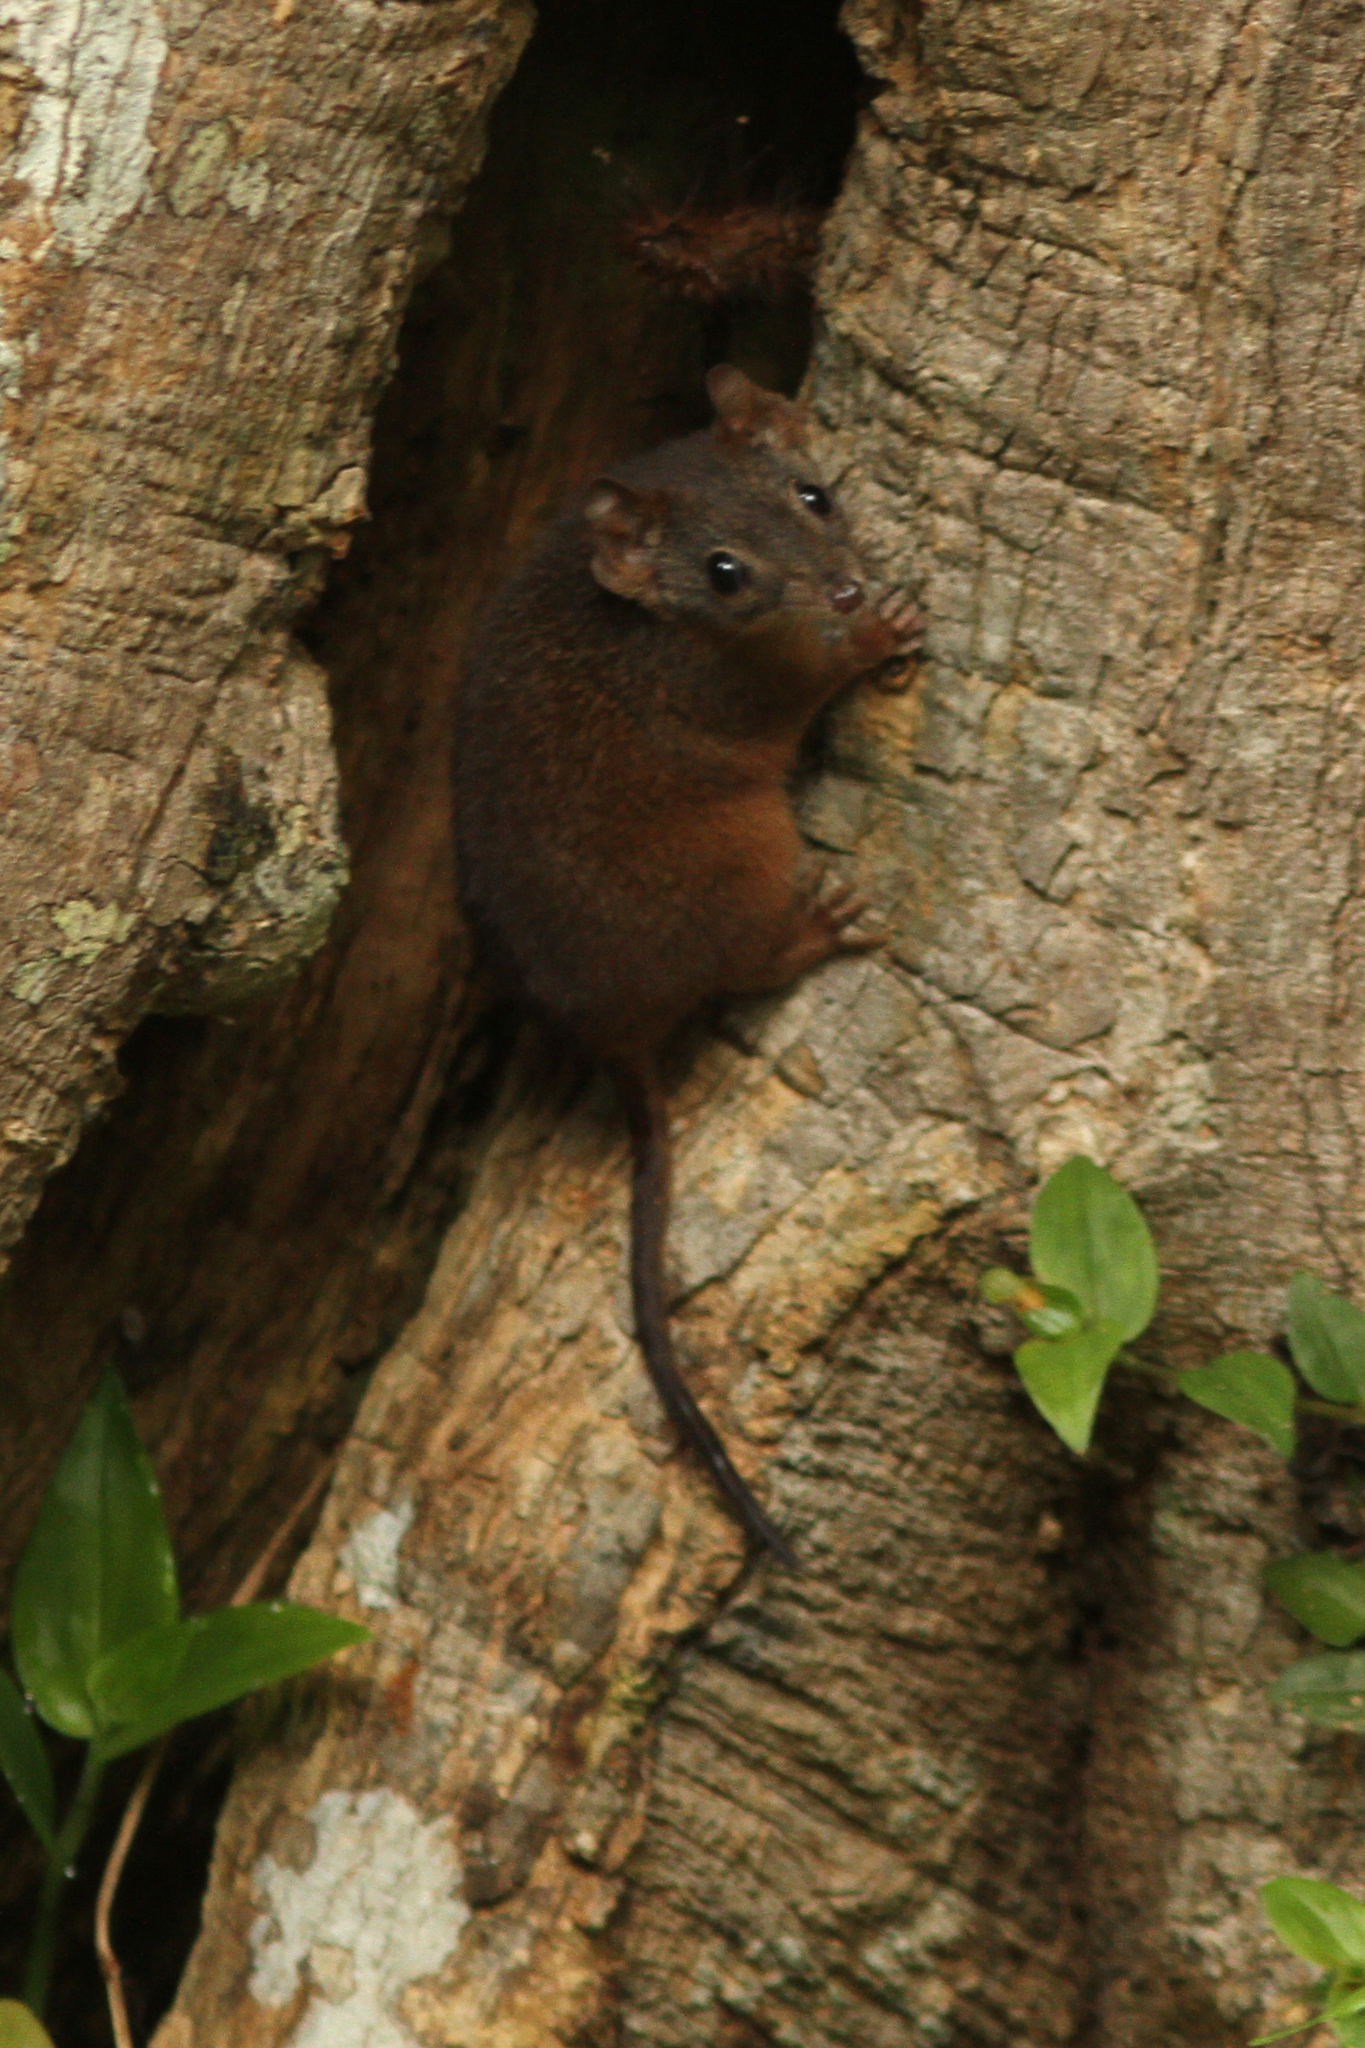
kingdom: Animalia
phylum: Chordata
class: Mammalia
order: Dasyuromorphia
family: Dasyuridae
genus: Antechinus
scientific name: Antechinus flavipes
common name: Yellow-footed antechinus
